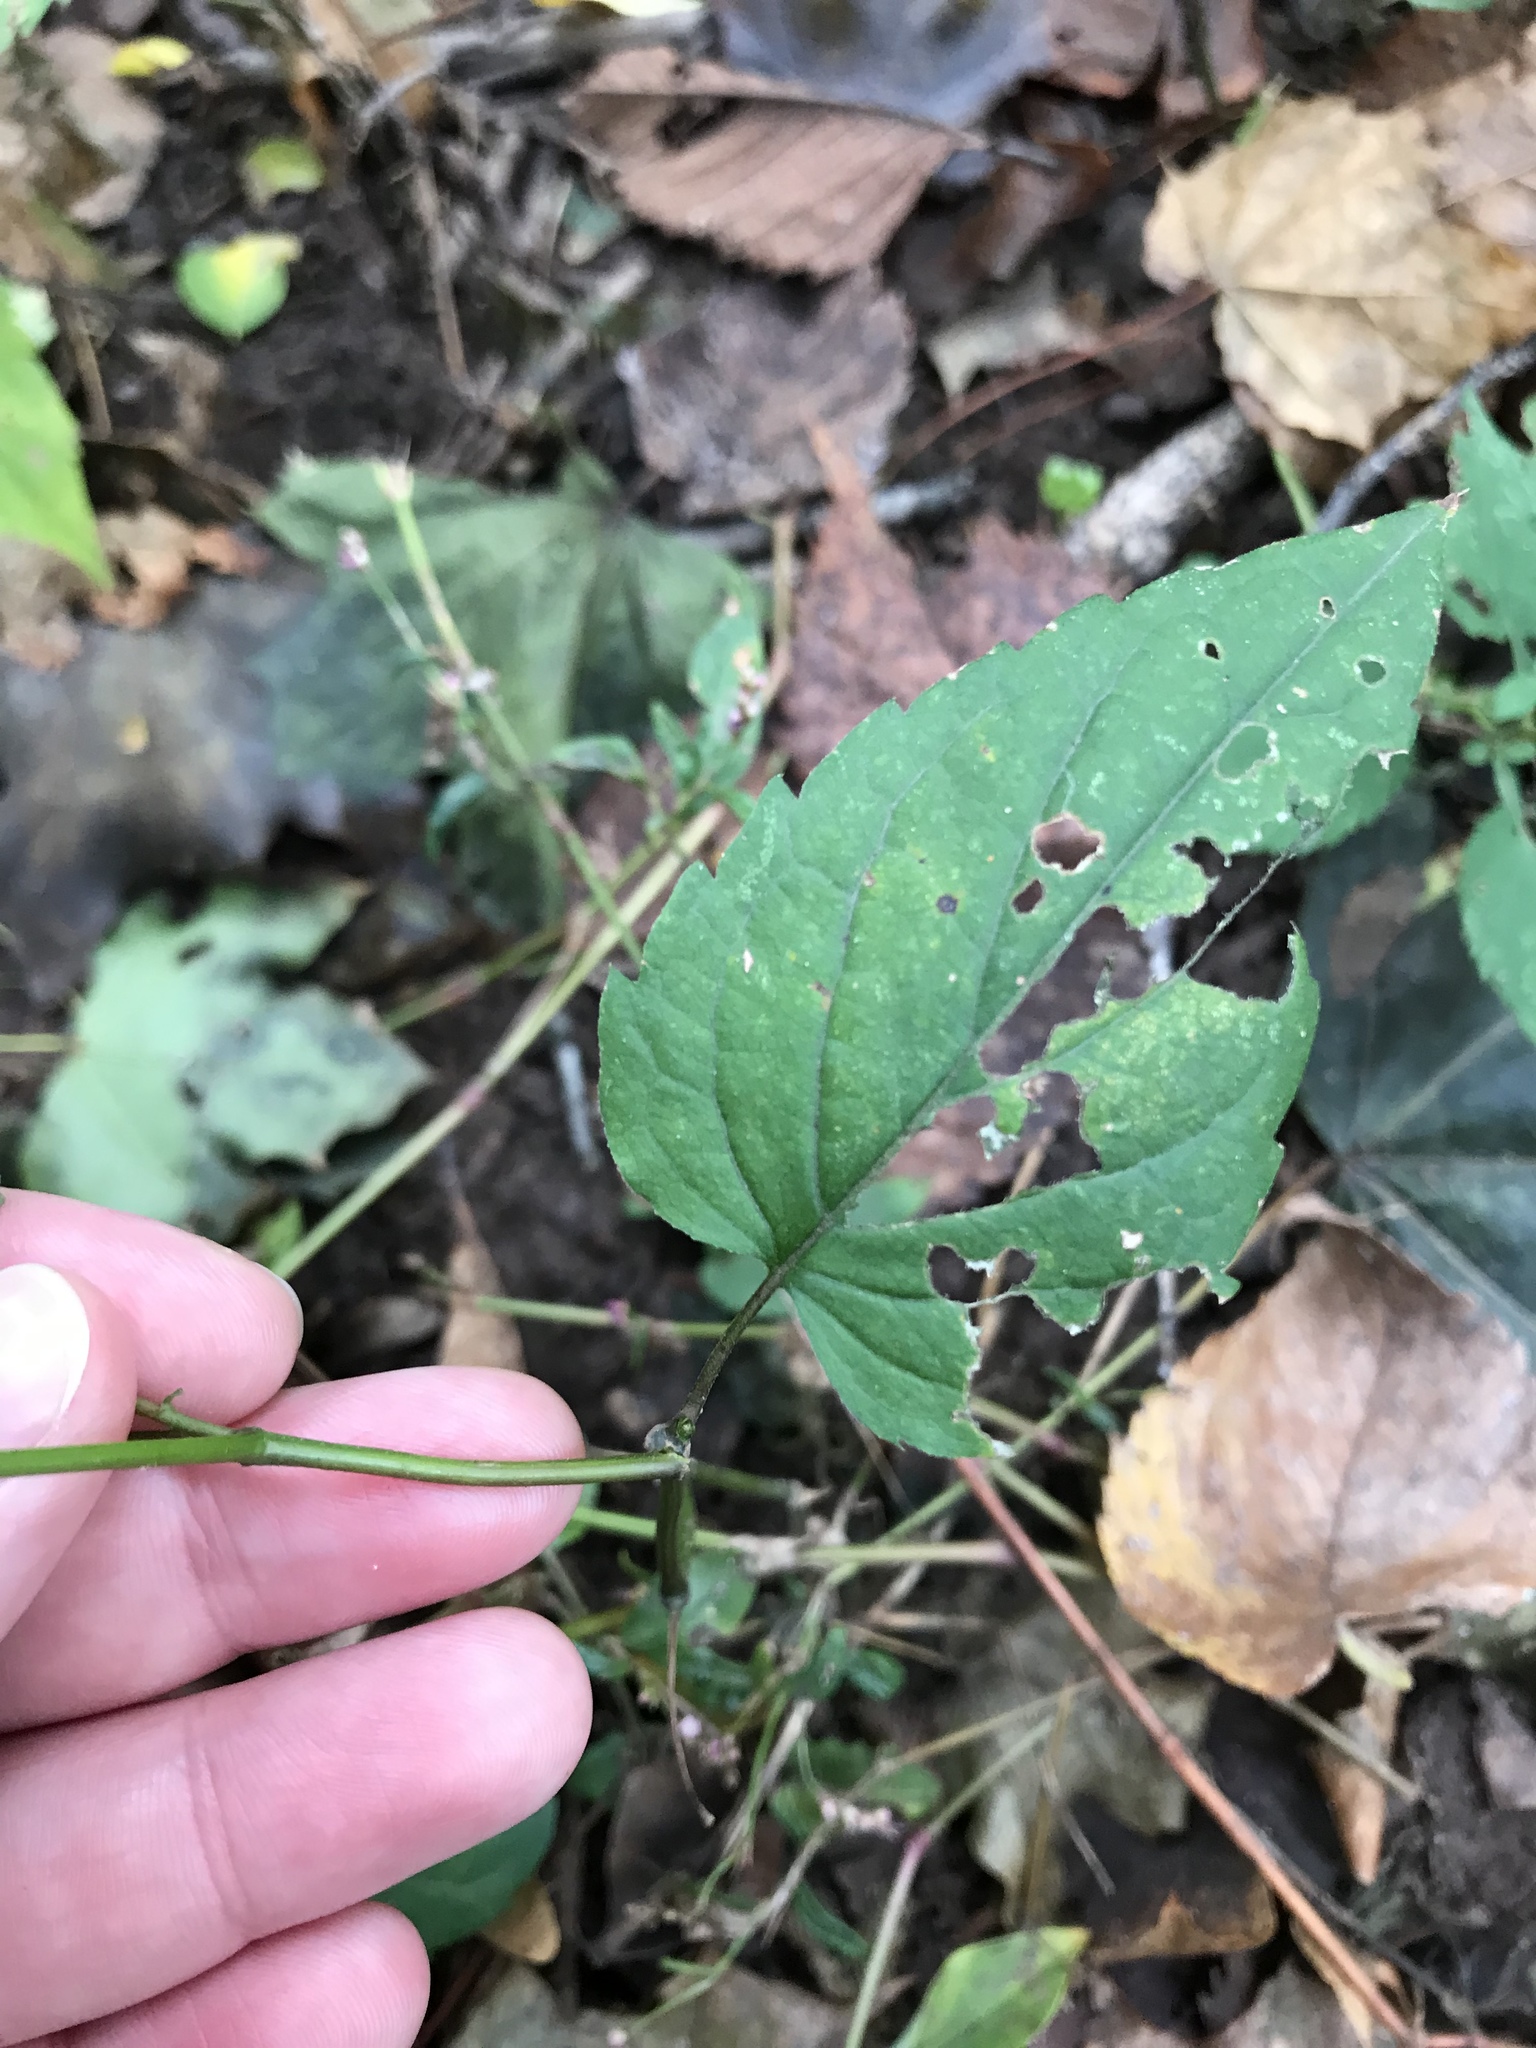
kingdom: Plantae
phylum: Tracheophyta
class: Magnoliopsida
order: Asterales
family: Asteraceae
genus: Eurybia
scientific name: Eurybia divaricata
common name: White wood aster
